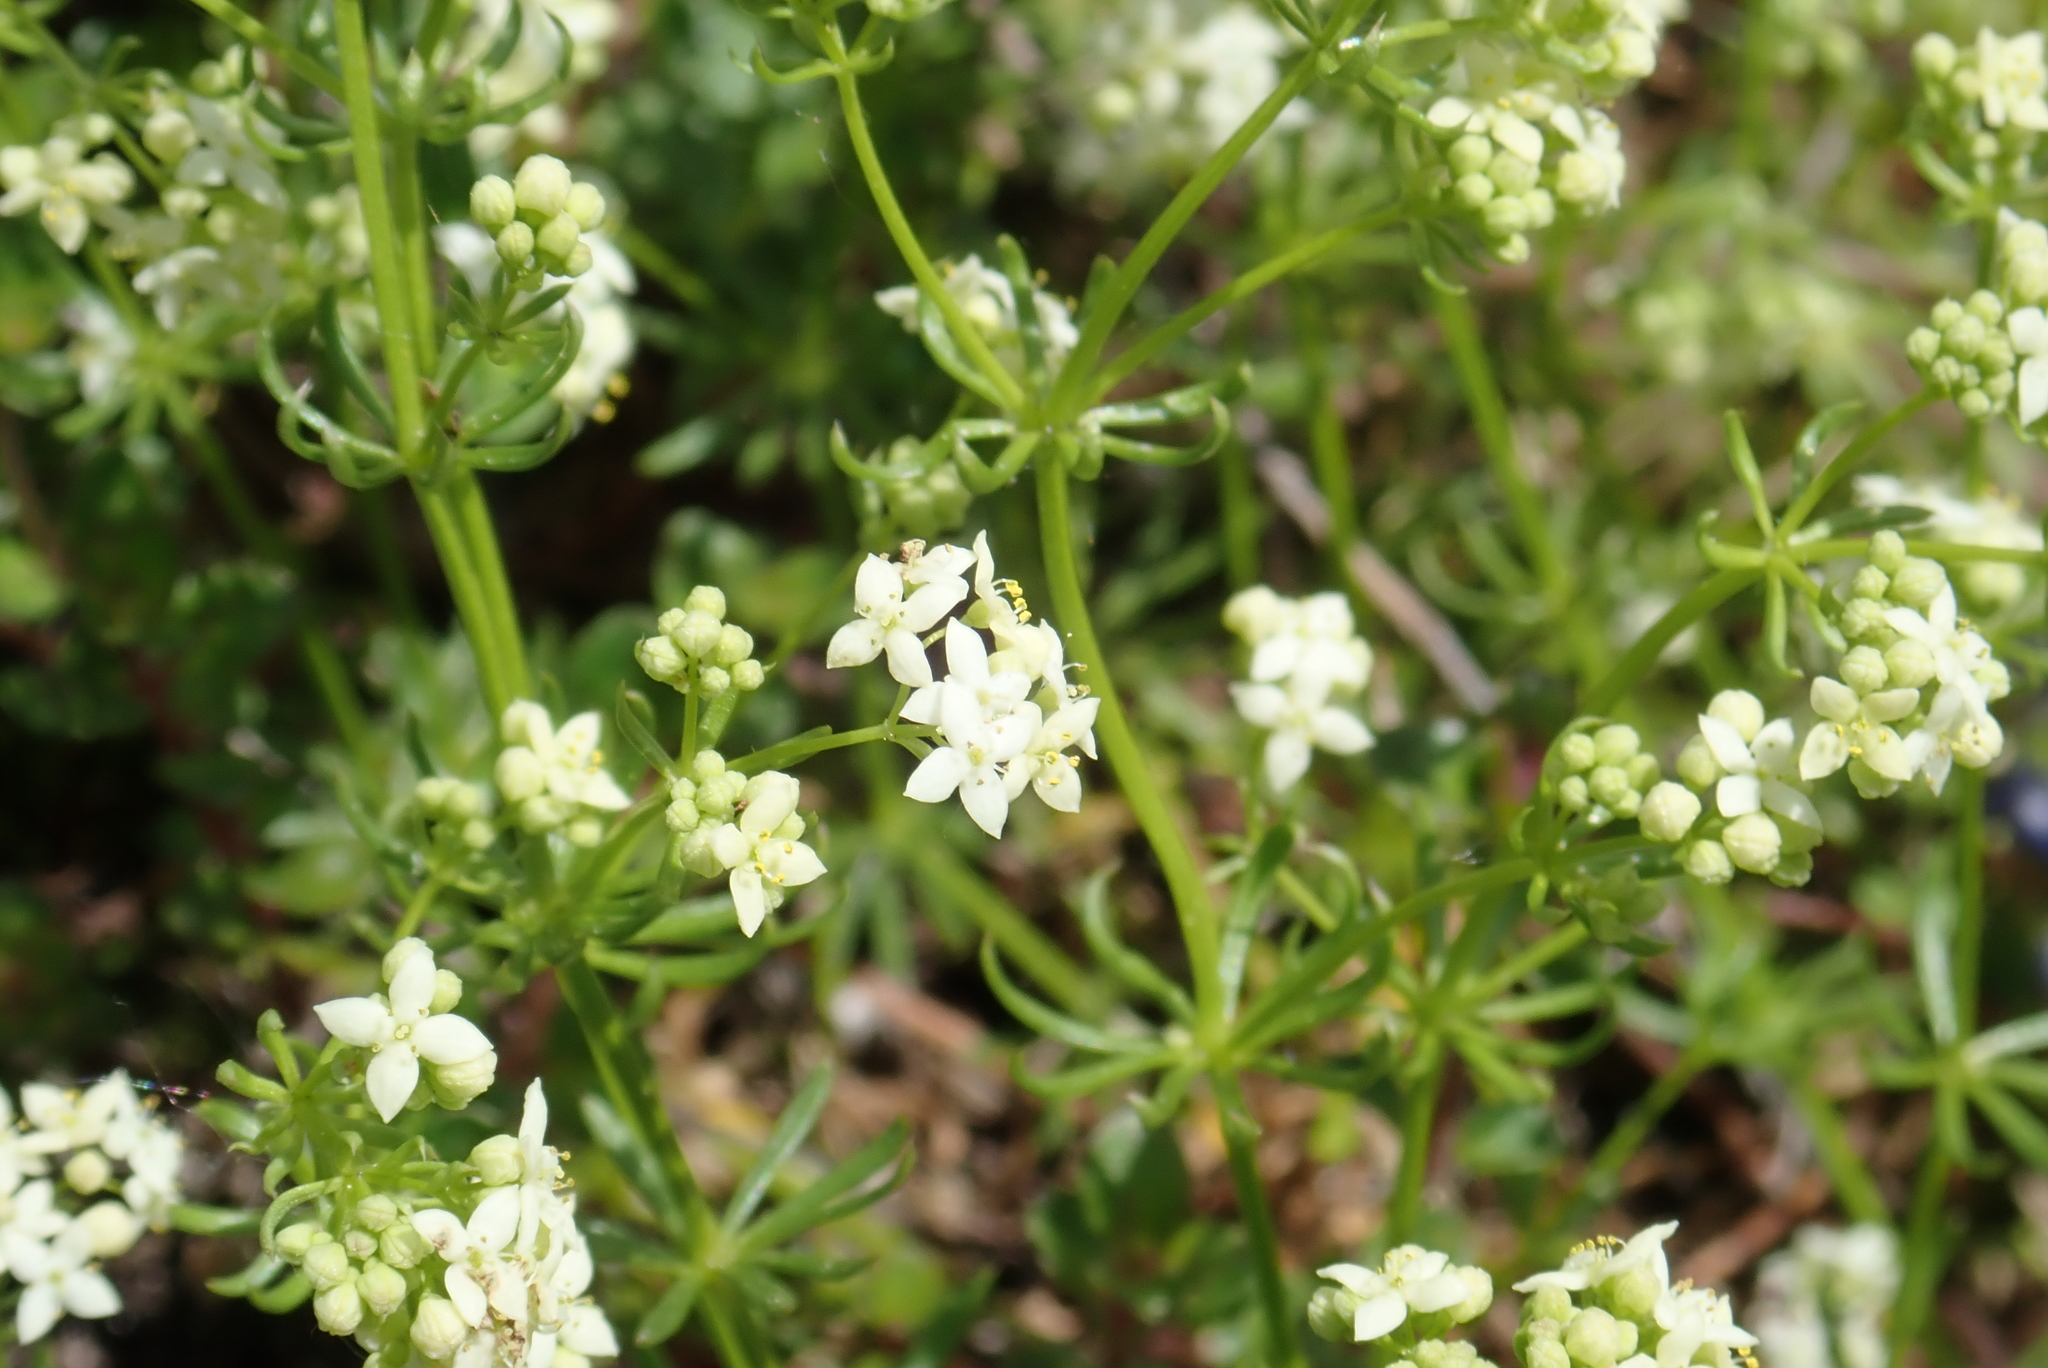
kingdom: Plantae
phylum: Tracheophyta
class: Magnoliopsida
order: Gentianales
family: Rubiaceae
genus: Galium
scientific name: Galium anisophyllon
